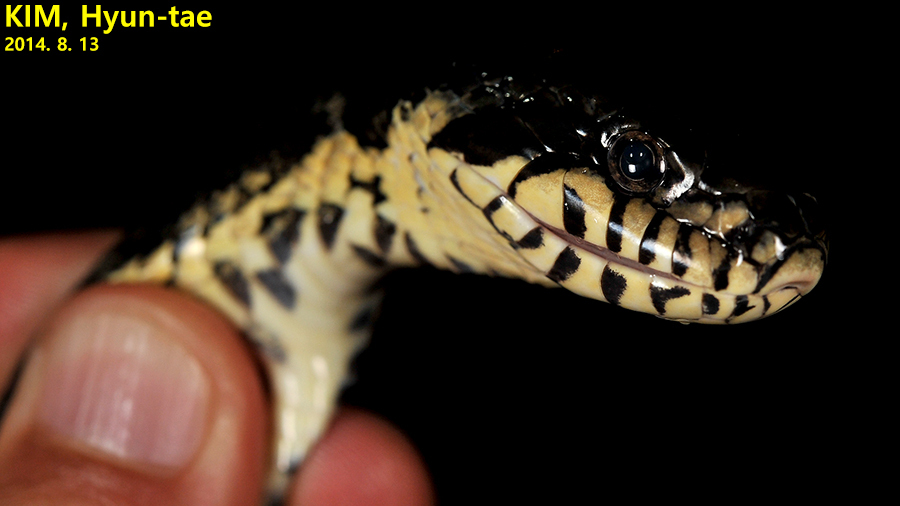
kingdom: Animalia
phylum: Chordata
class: Squamata
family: Colubridae
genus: Elaphe
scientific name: Elaphe schrenckii
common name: Amur rat snake
